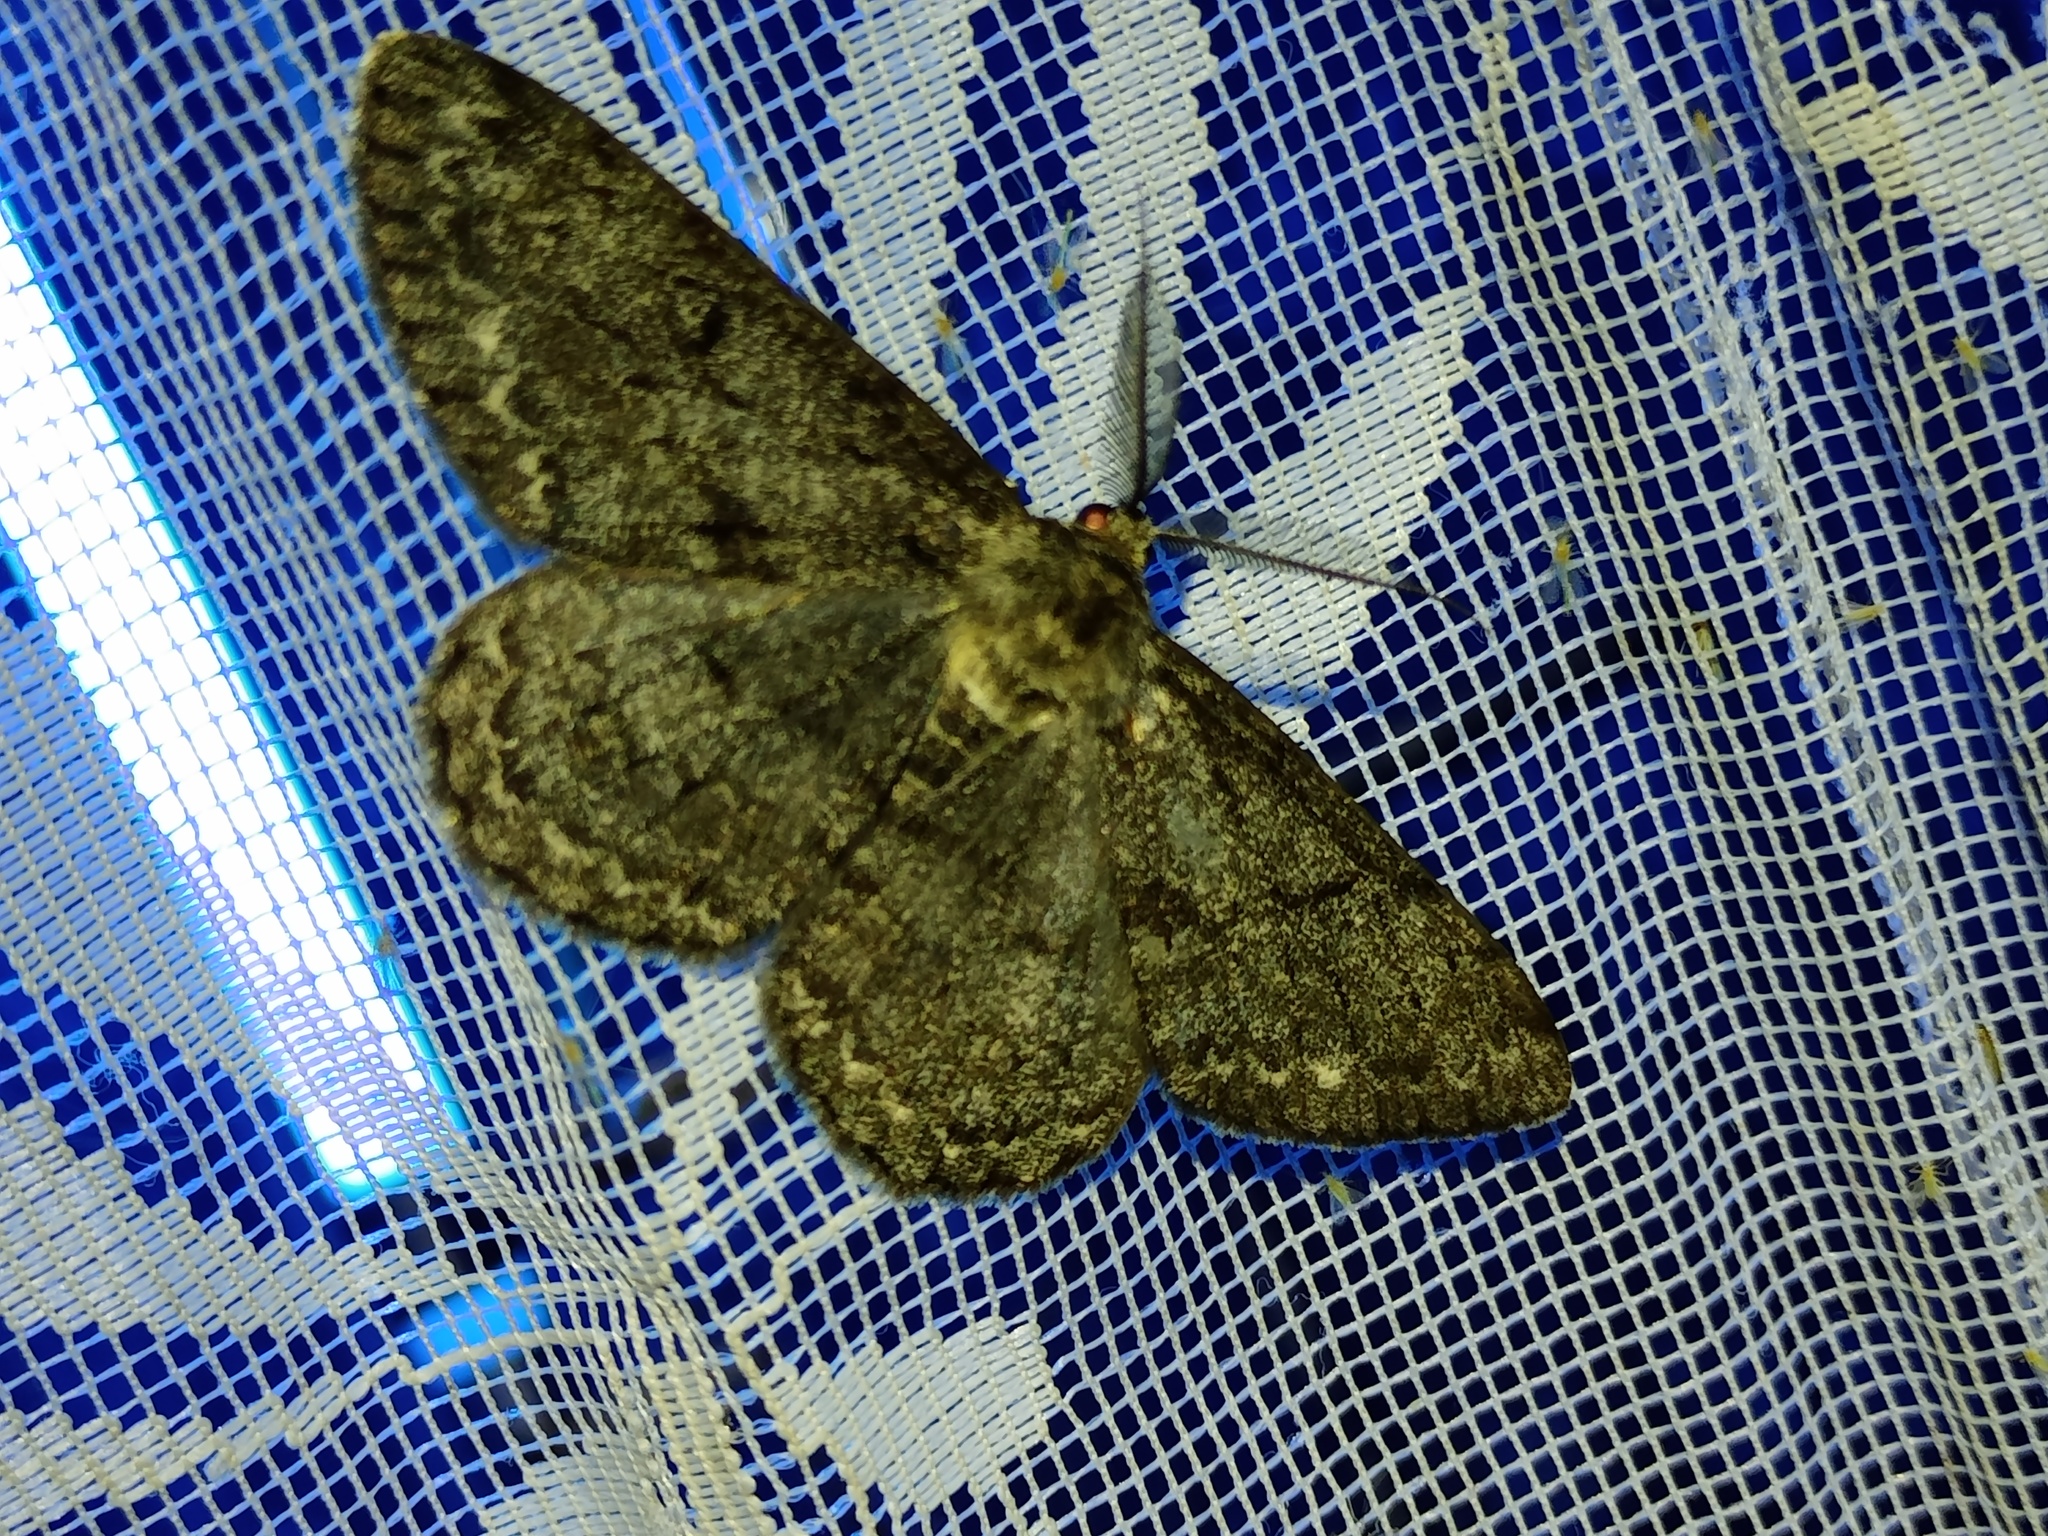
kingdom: Animalia
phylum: Arthropoda
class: Insecta
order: Lepidoptera
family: Geometridae
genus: Hypomecis
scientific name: Hypomecis roboraria
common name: Great oak beauty
